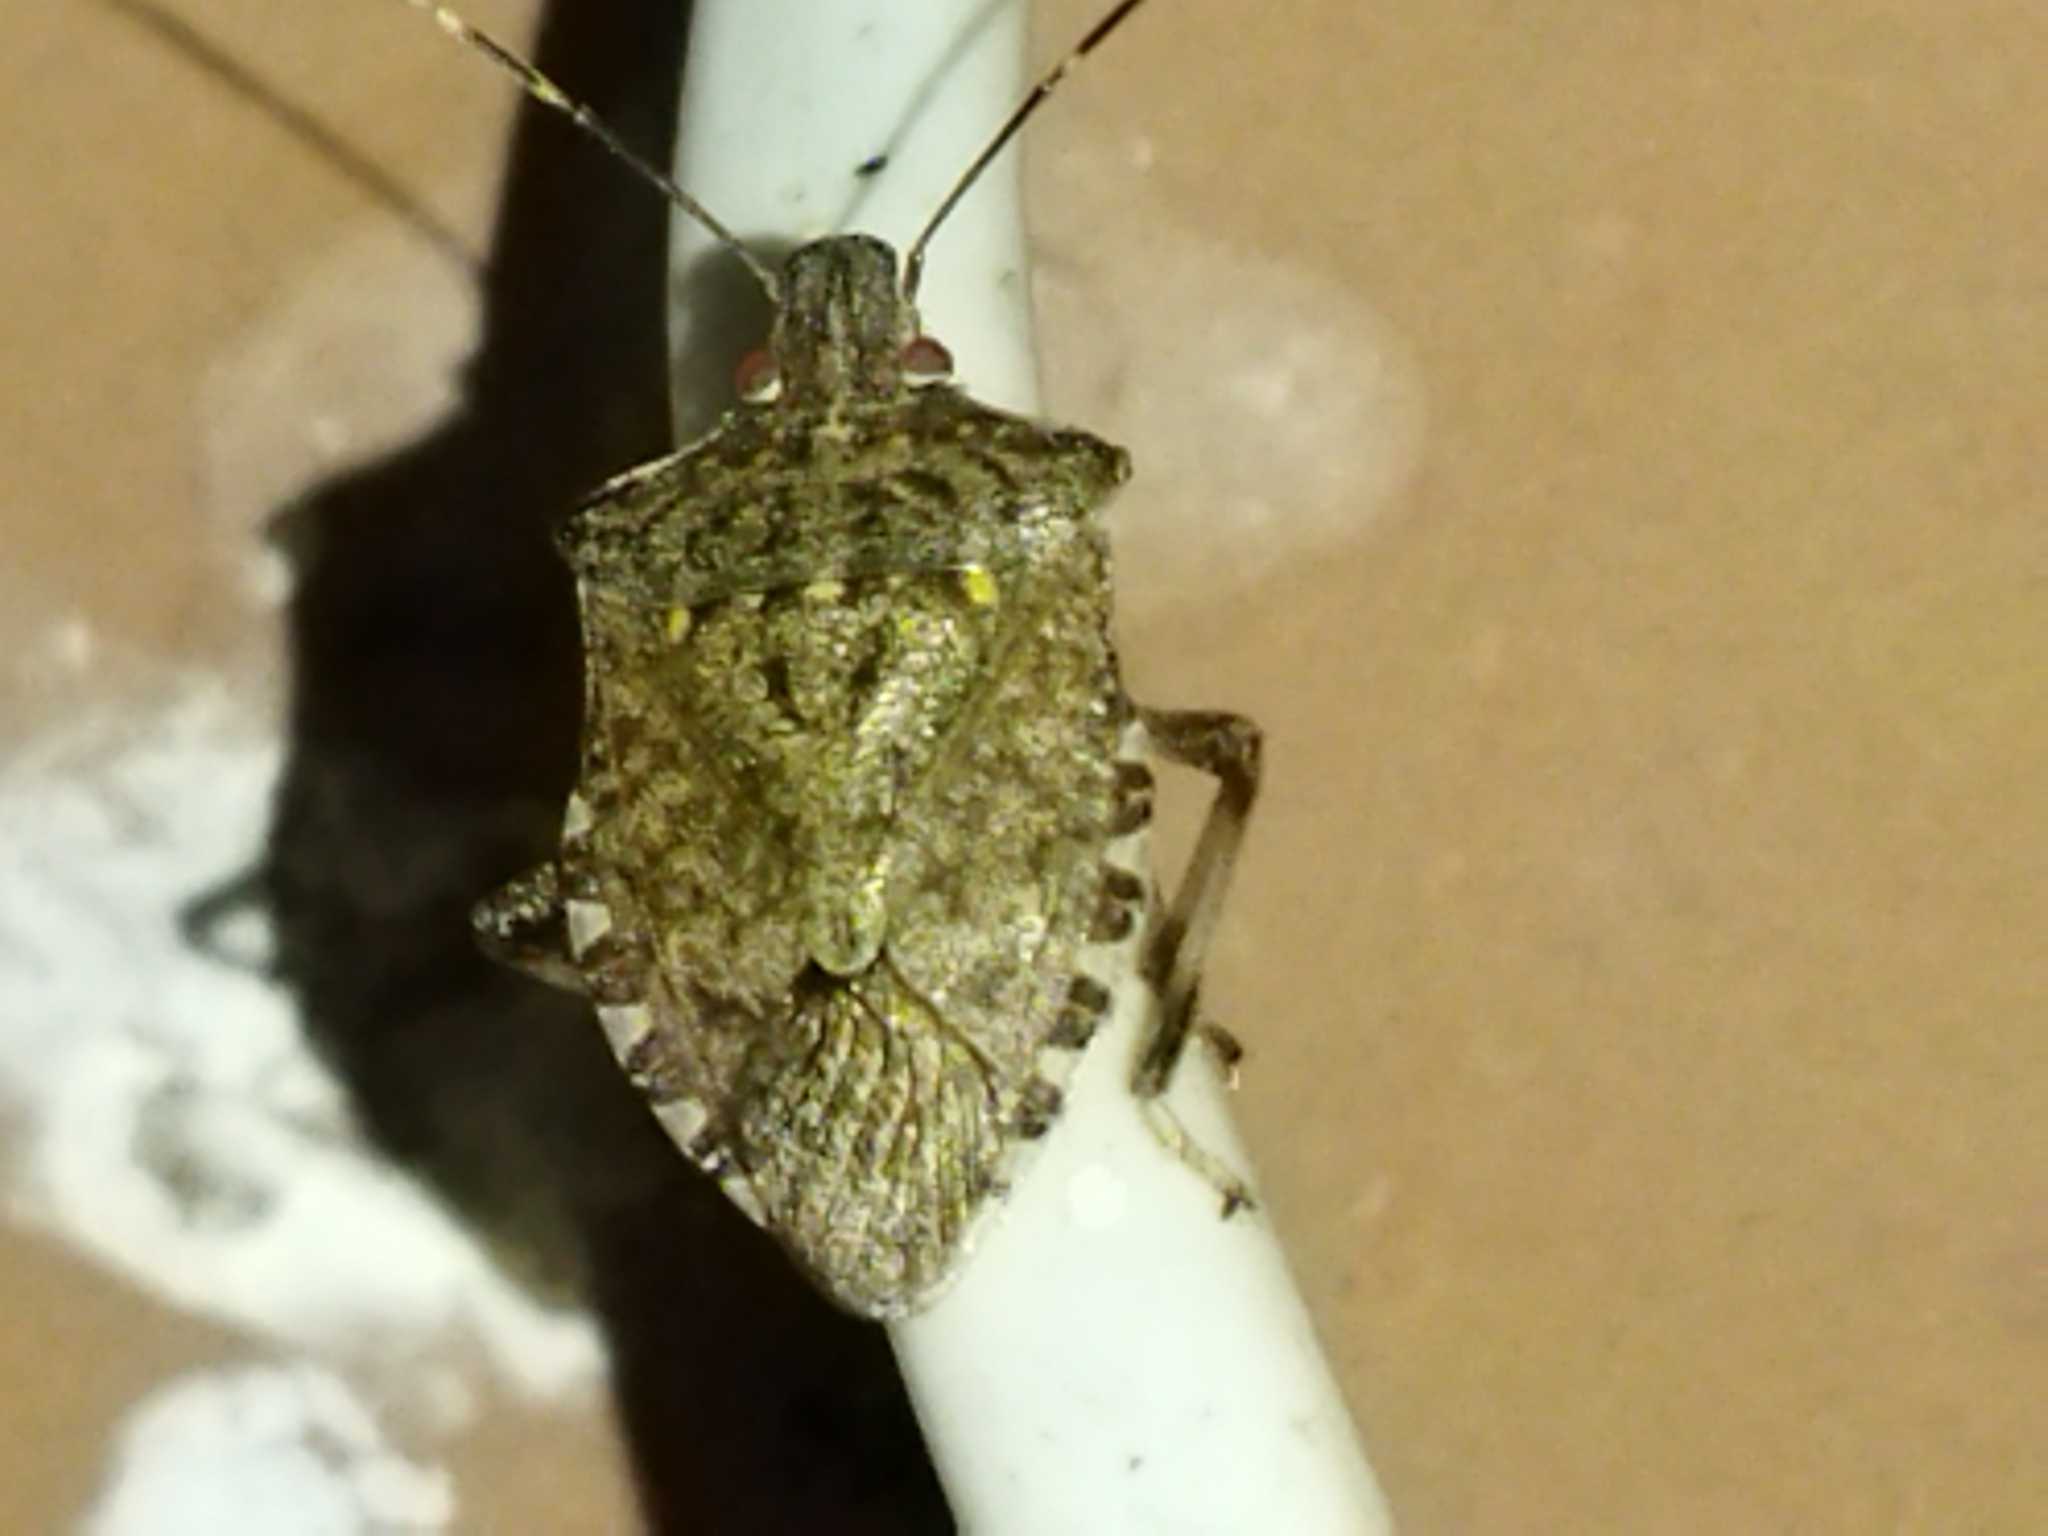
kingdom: Animalia
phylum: Arthropoda
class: Insecta
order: Hemiptera
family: Pentatomidae
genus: Halyomorpha
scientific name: Halyomorpha halys
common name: Brown marmorated stink bug
